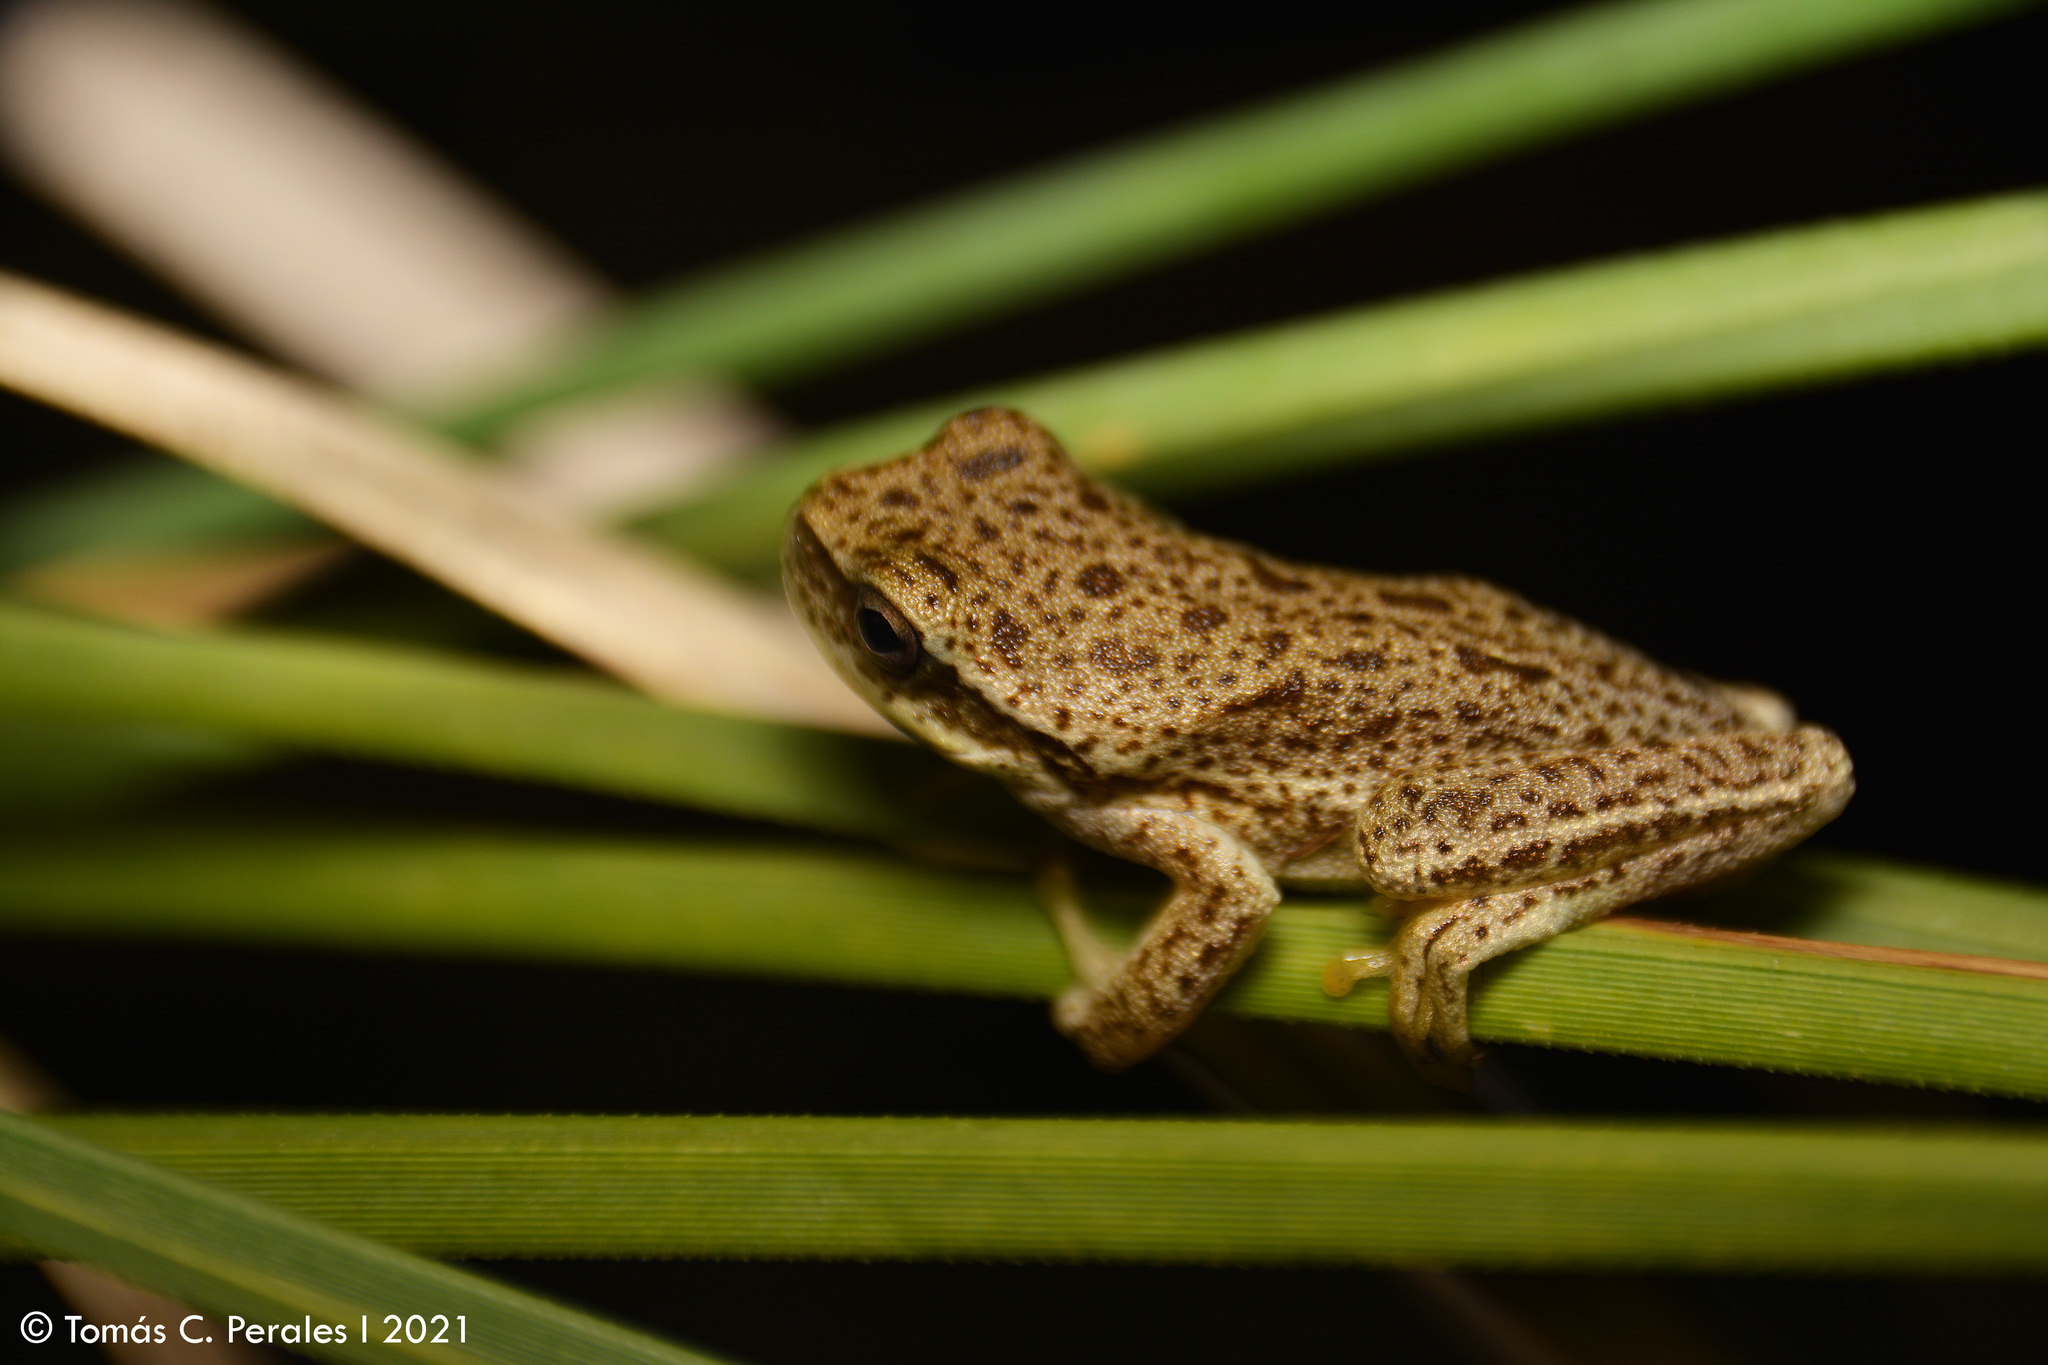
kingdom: Animalia
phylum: Chordata
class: Amphibia
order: Anura
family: Hylidae
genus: Boana
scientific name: Boana cordobae
